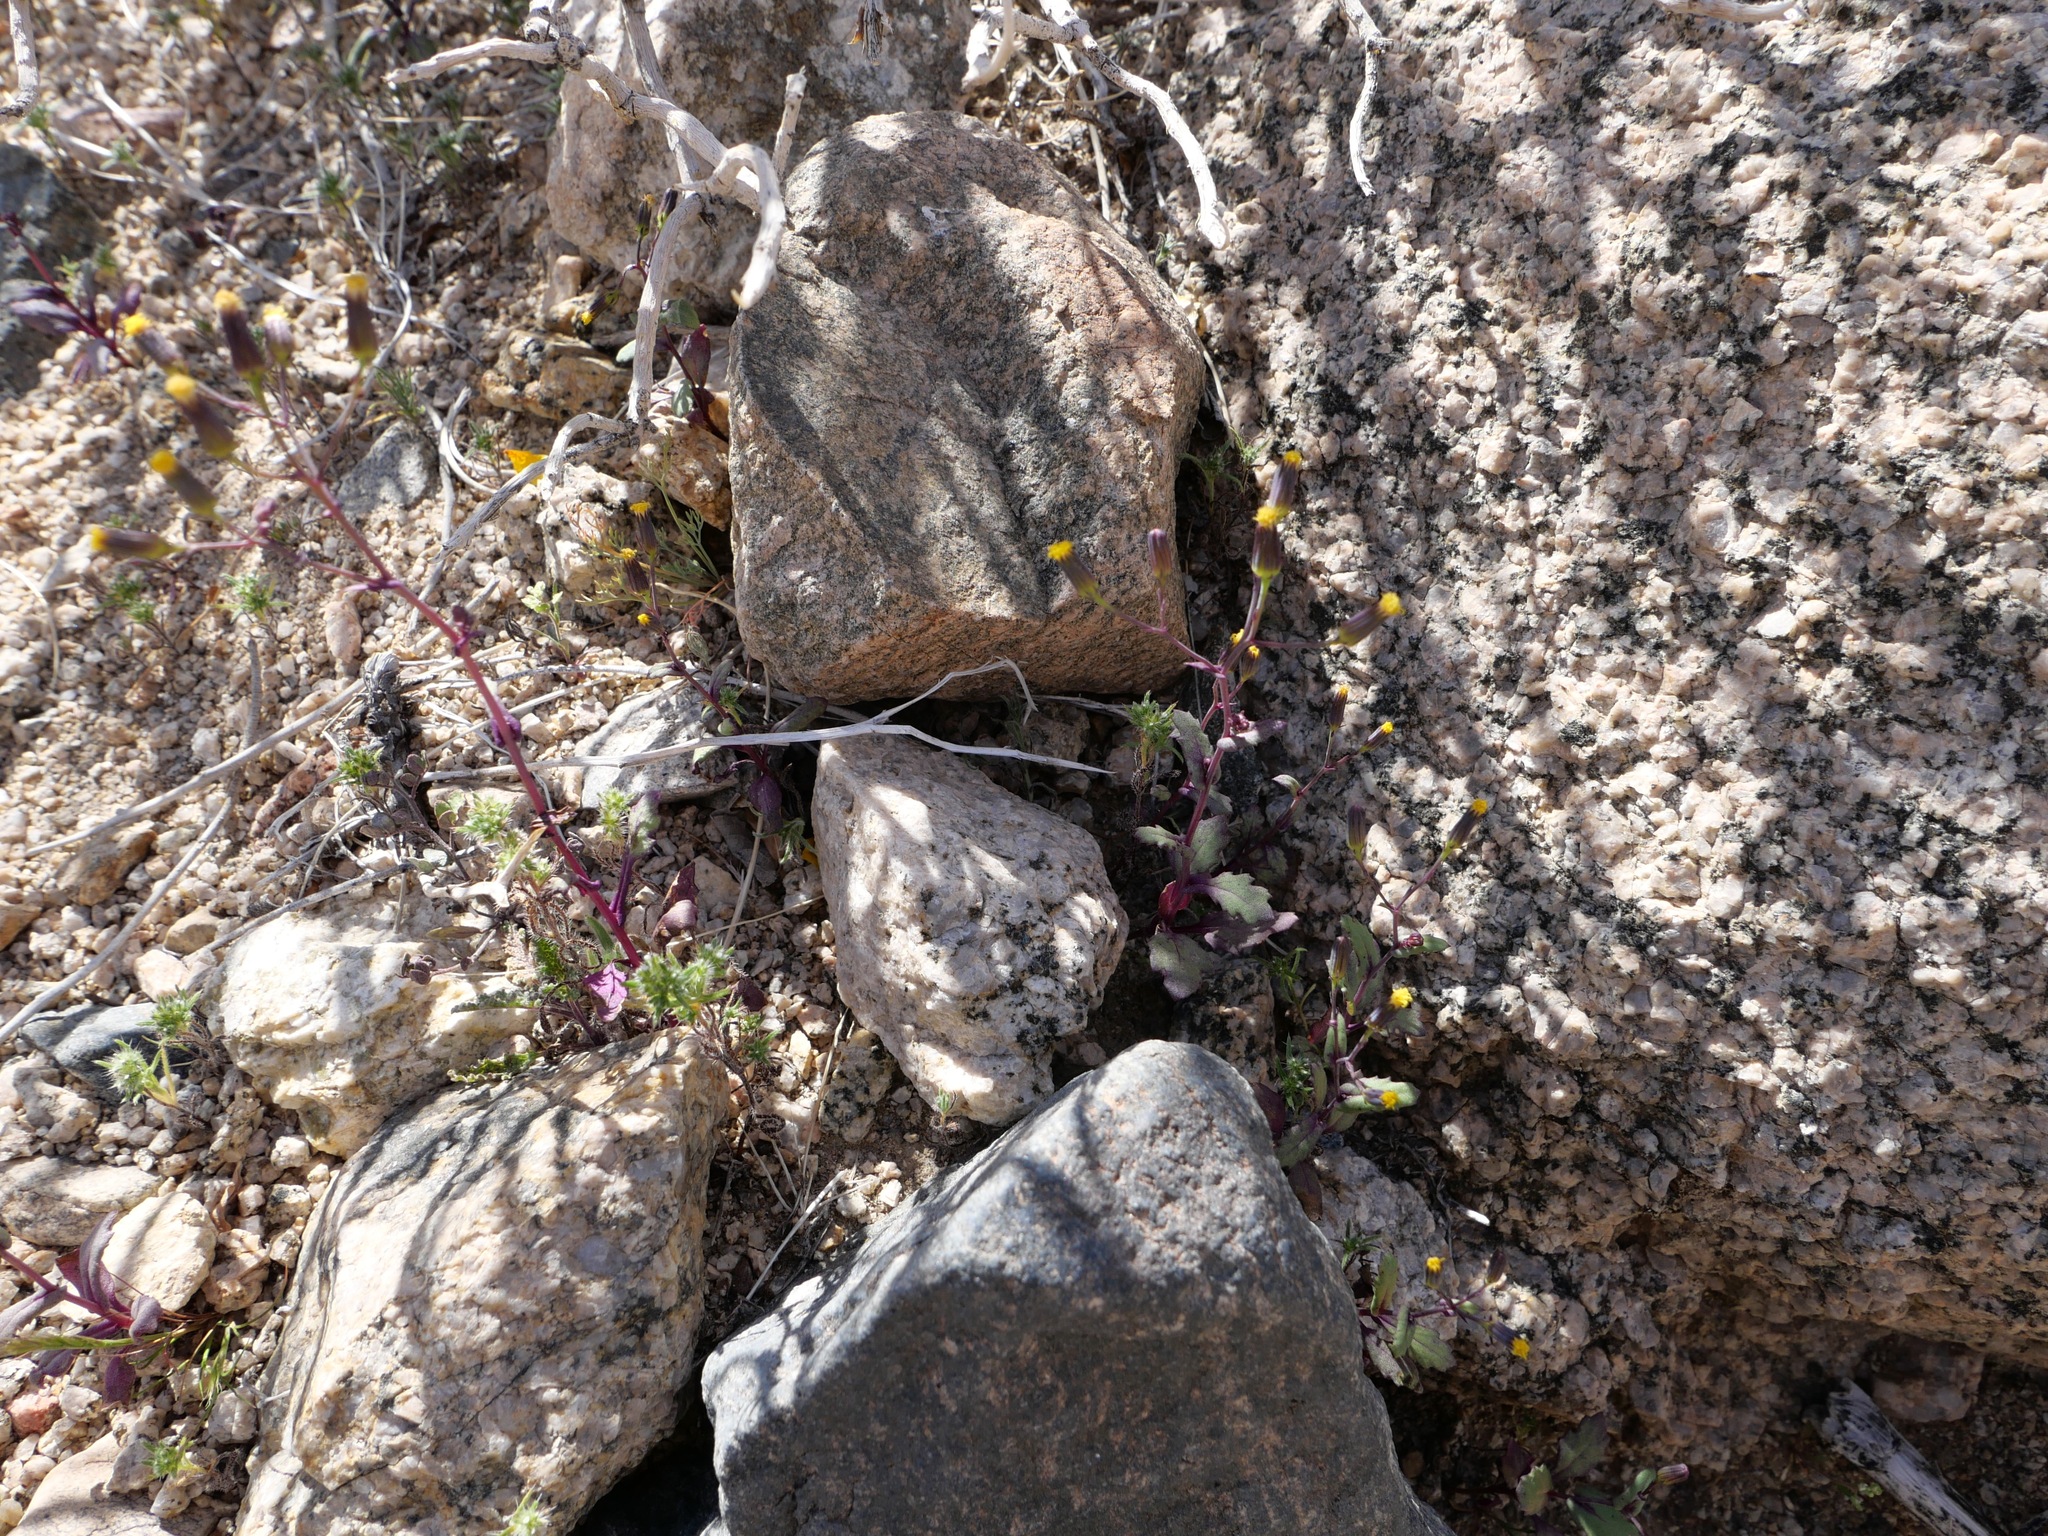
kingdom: Plantae
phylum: Tracheophyta
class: Magnoliopsida
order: Asterales
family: Asteraceae
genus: Senecio
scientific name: Senecio mohavensis
